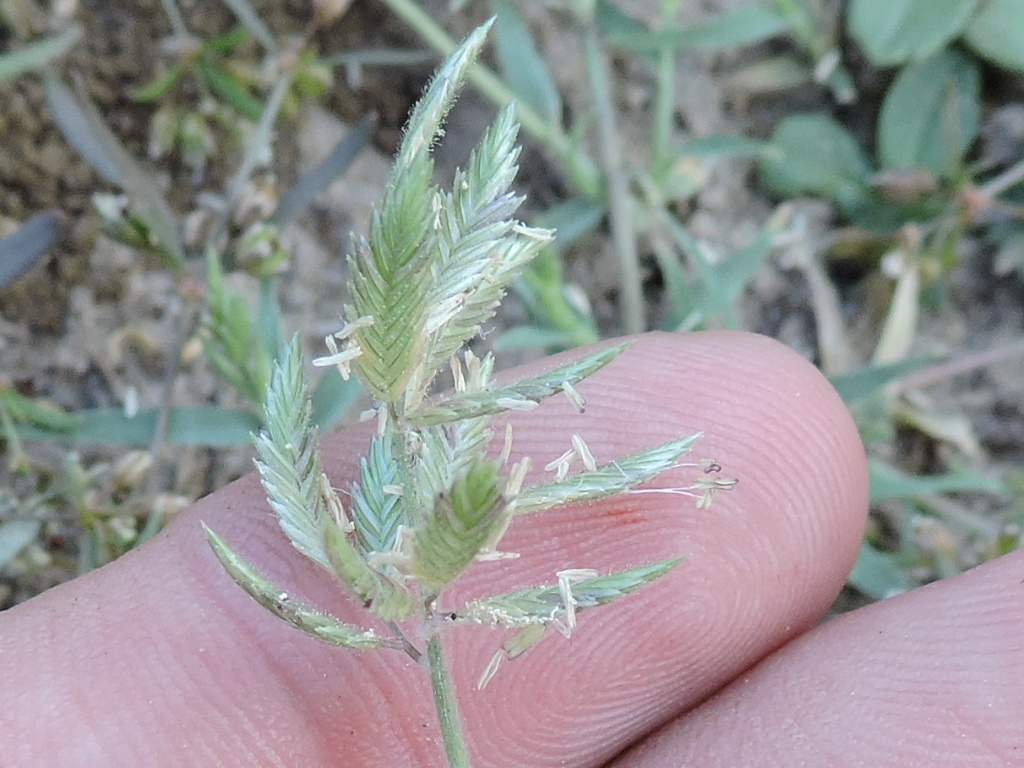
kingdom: Plantae
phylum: Tracheophyta
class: Liliopsida
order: Poales
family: Poaceae
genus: Eragrostis
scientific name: Eragrostis reptans
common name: Creeping love grass
